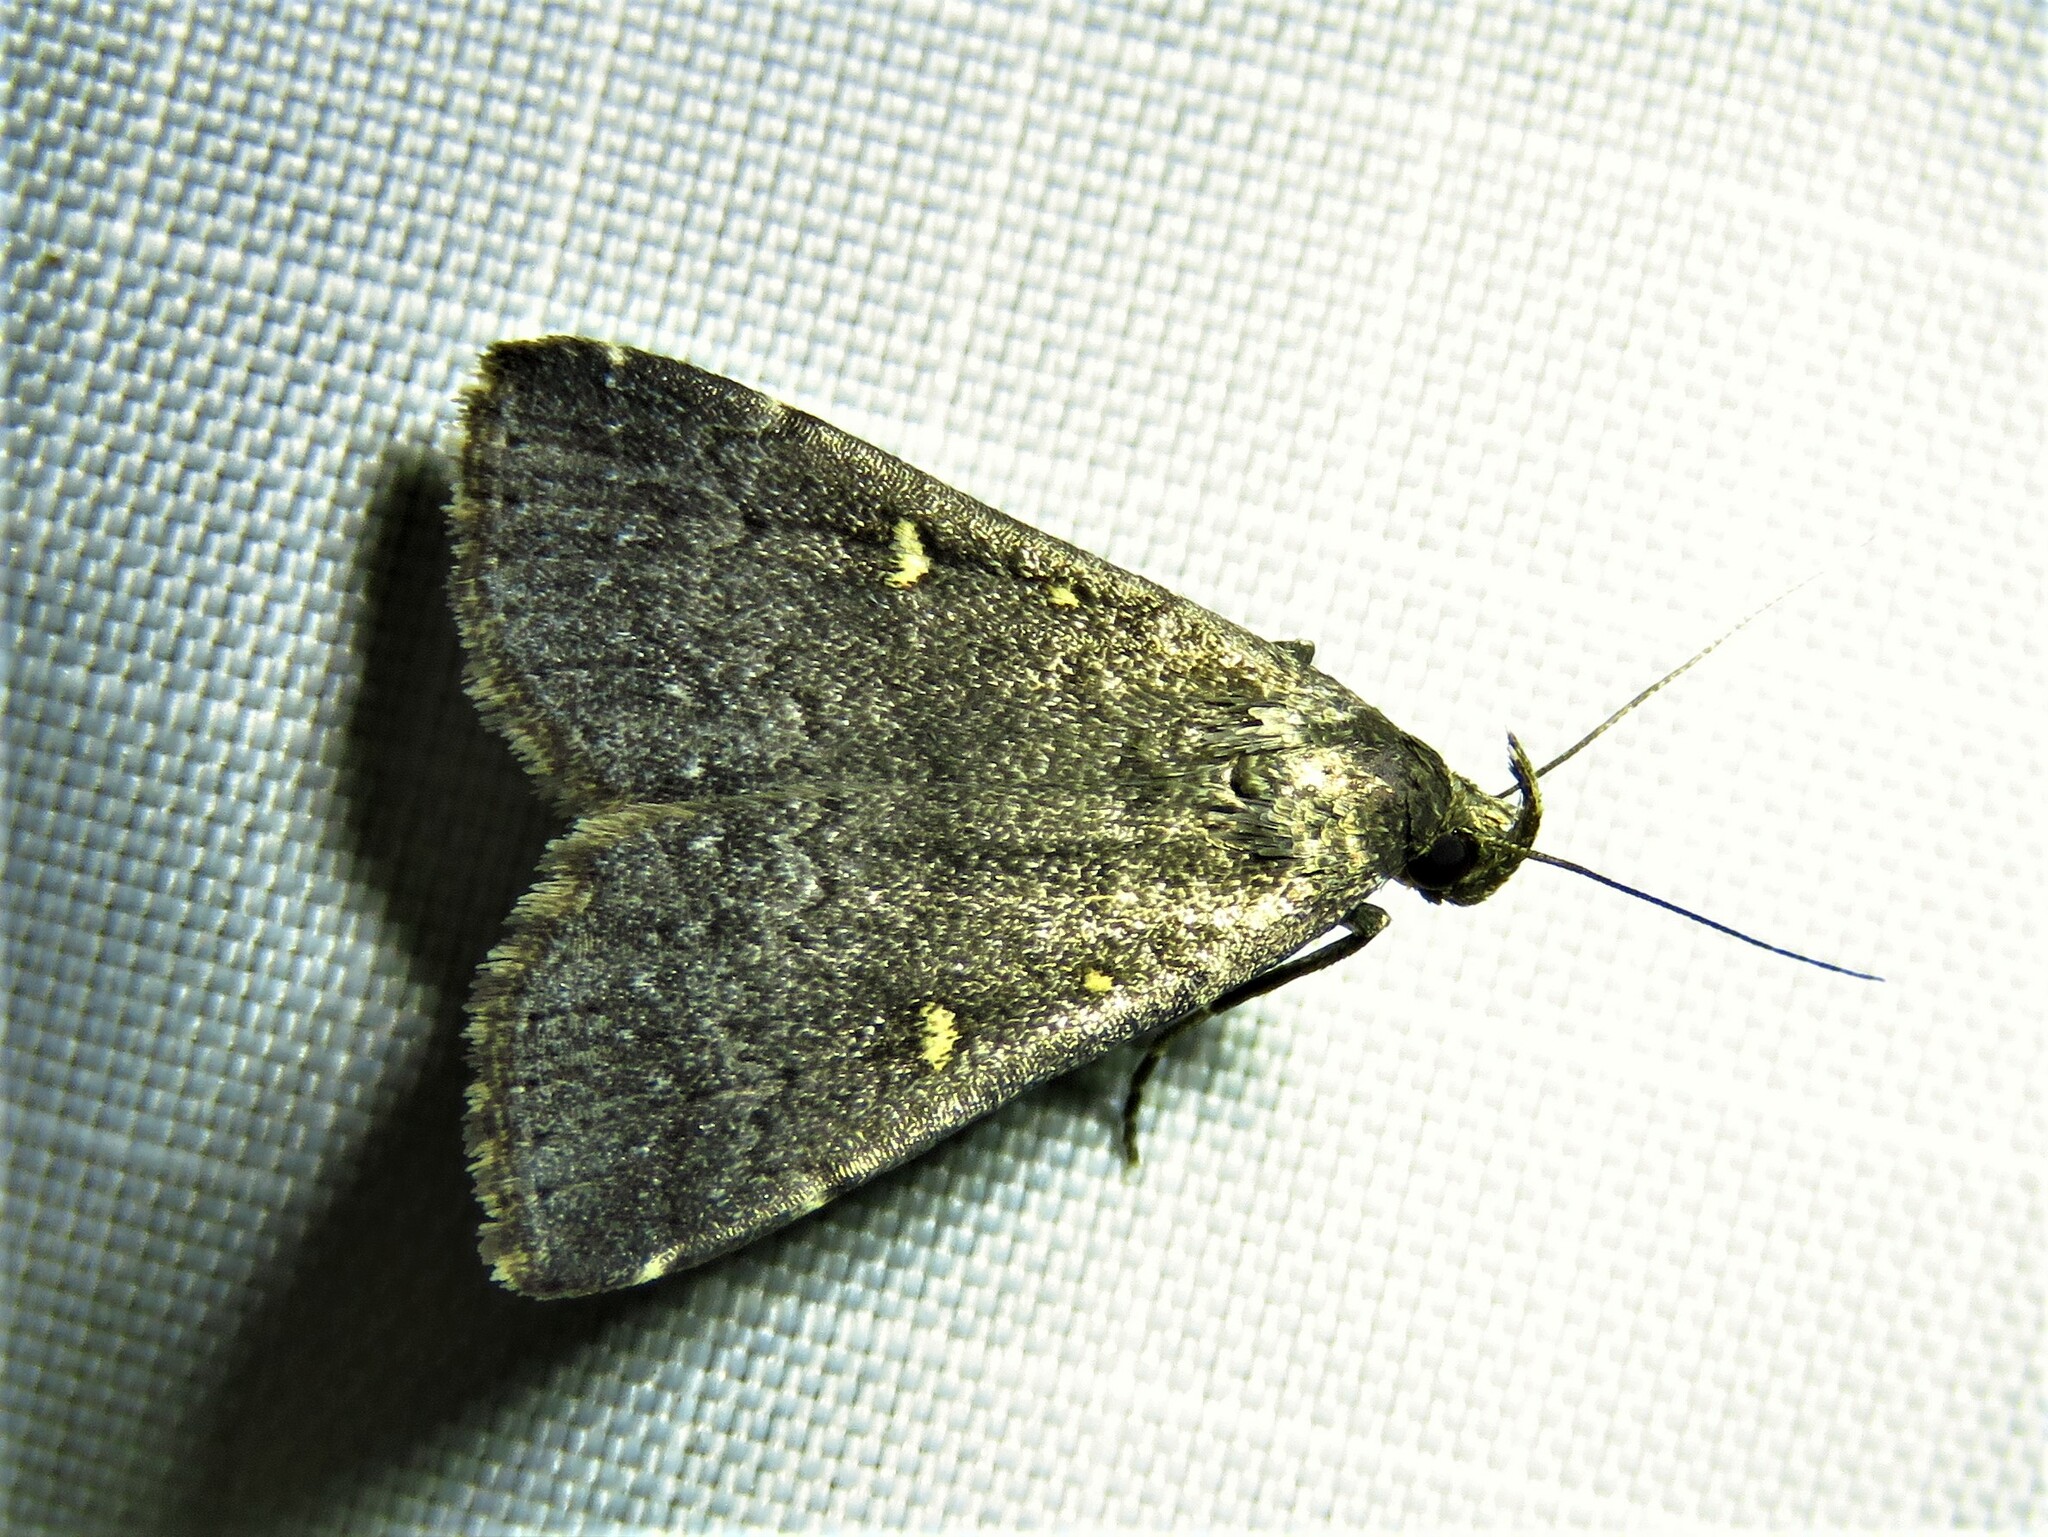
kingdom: Animalia
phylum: Arthropoda
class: Insecta
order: Lepidoptera
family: Erebidae
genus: Tetanolita
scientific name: Tetanolita mynesalis
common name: Smoky tetanolita moth
